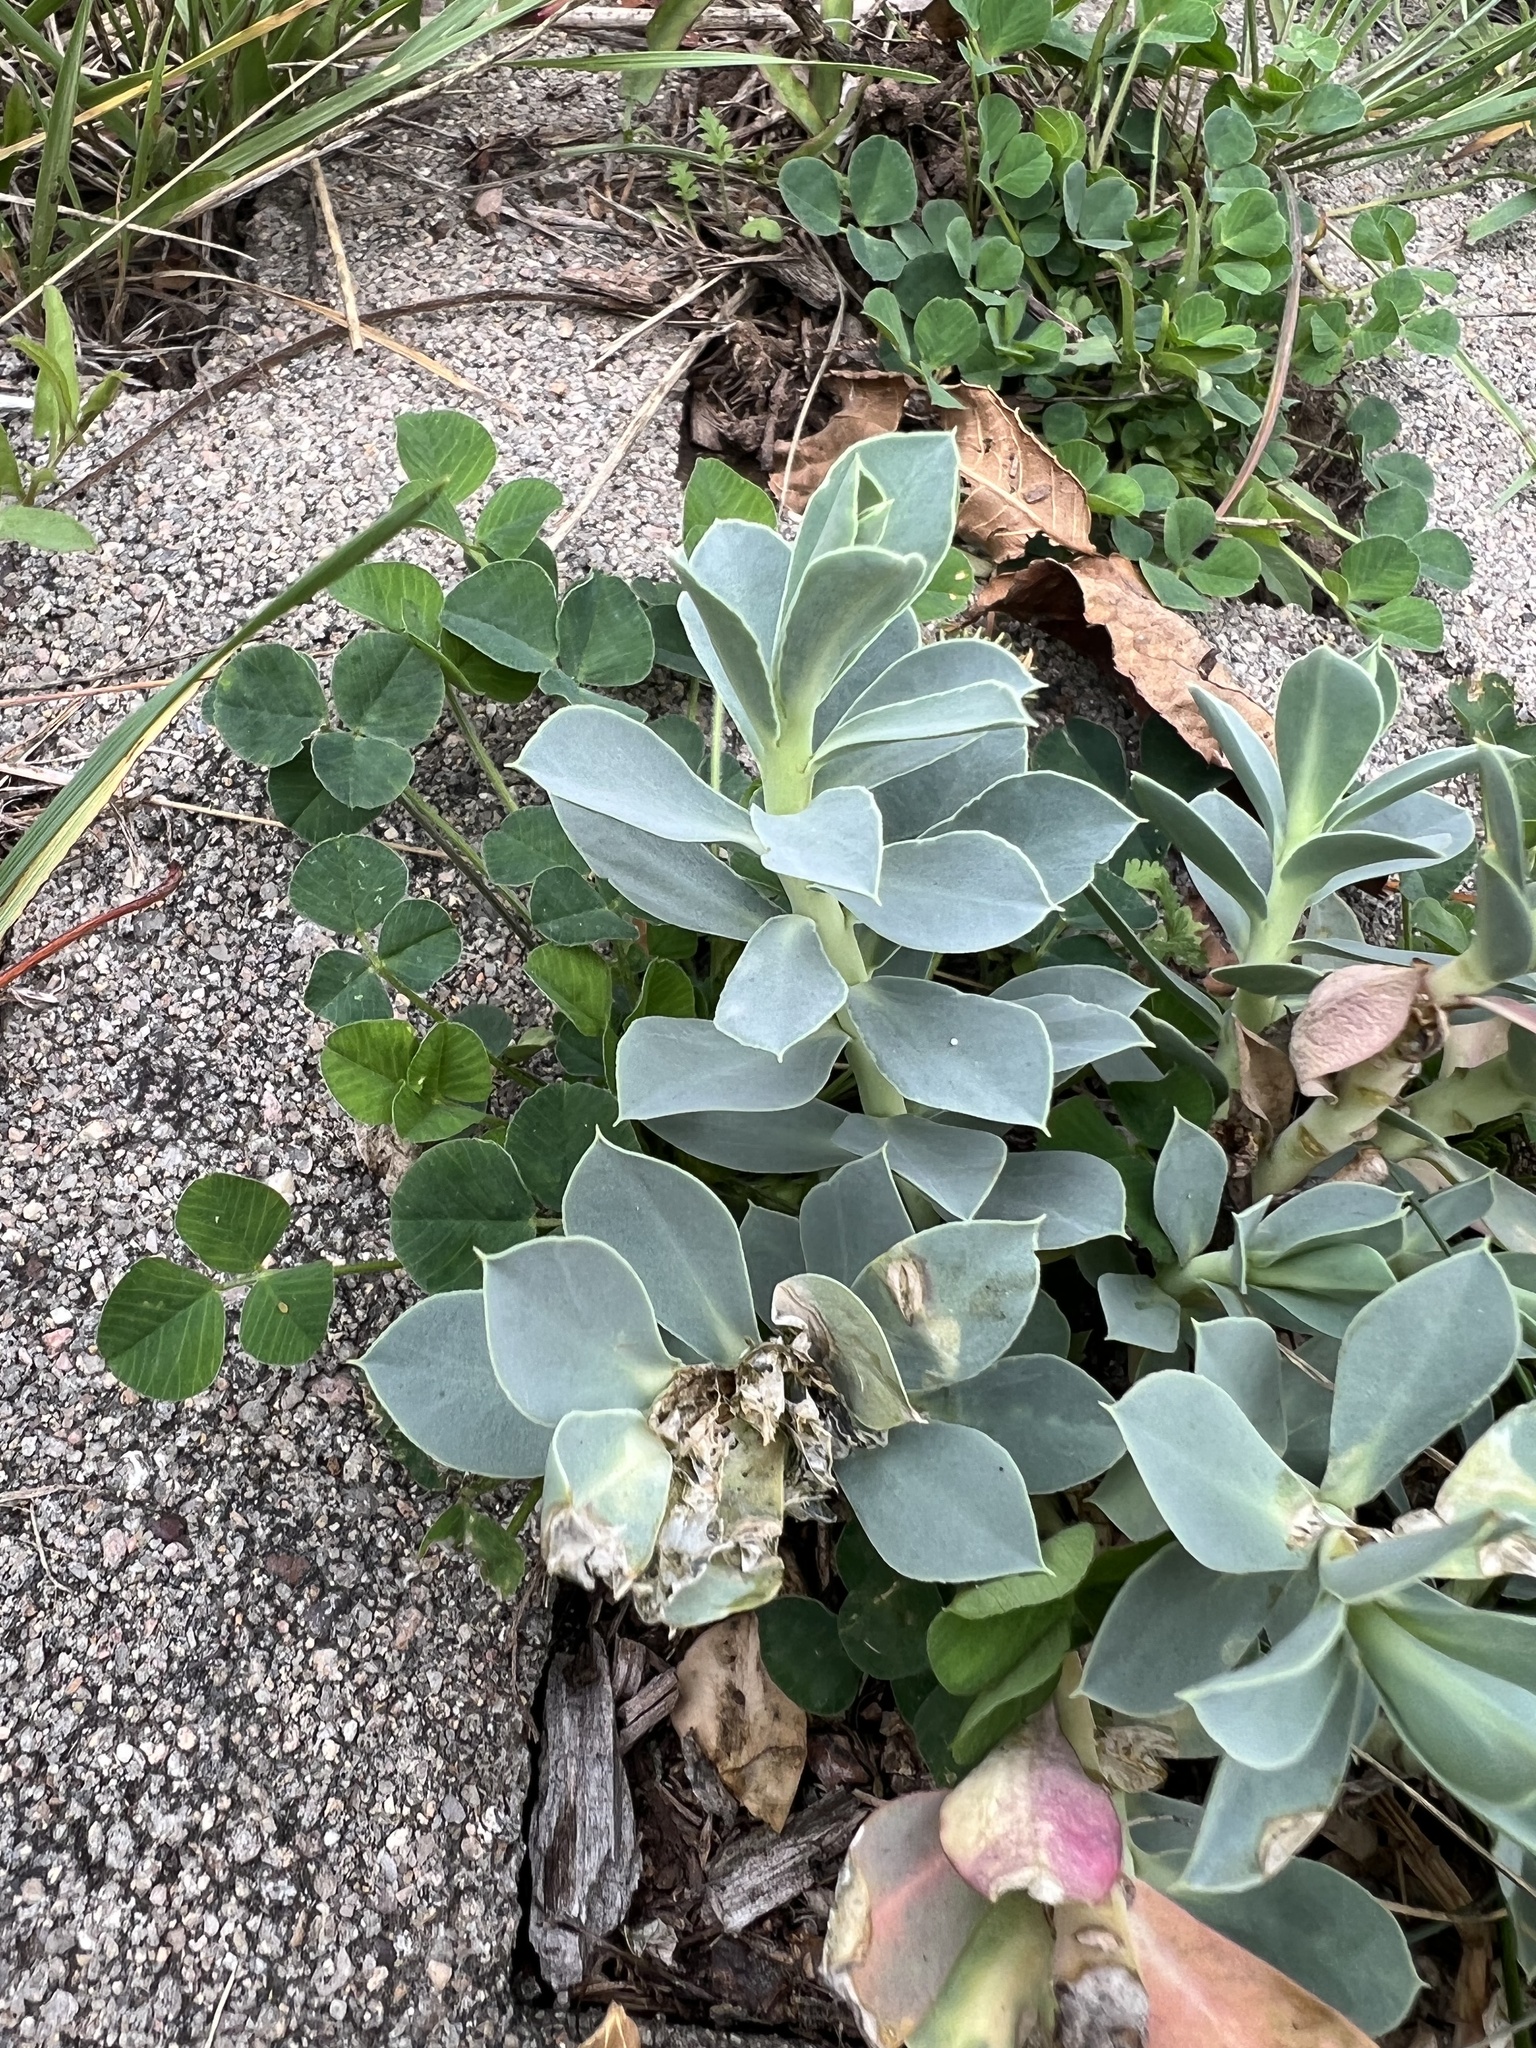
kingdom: Plantae
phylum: Tracheophyta
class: Magnoliopsida
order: Malpighiales
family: Euphorbiaceae
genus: Euphorbia
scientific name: Euphorbia myrsinites
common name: Myrtle spurge
